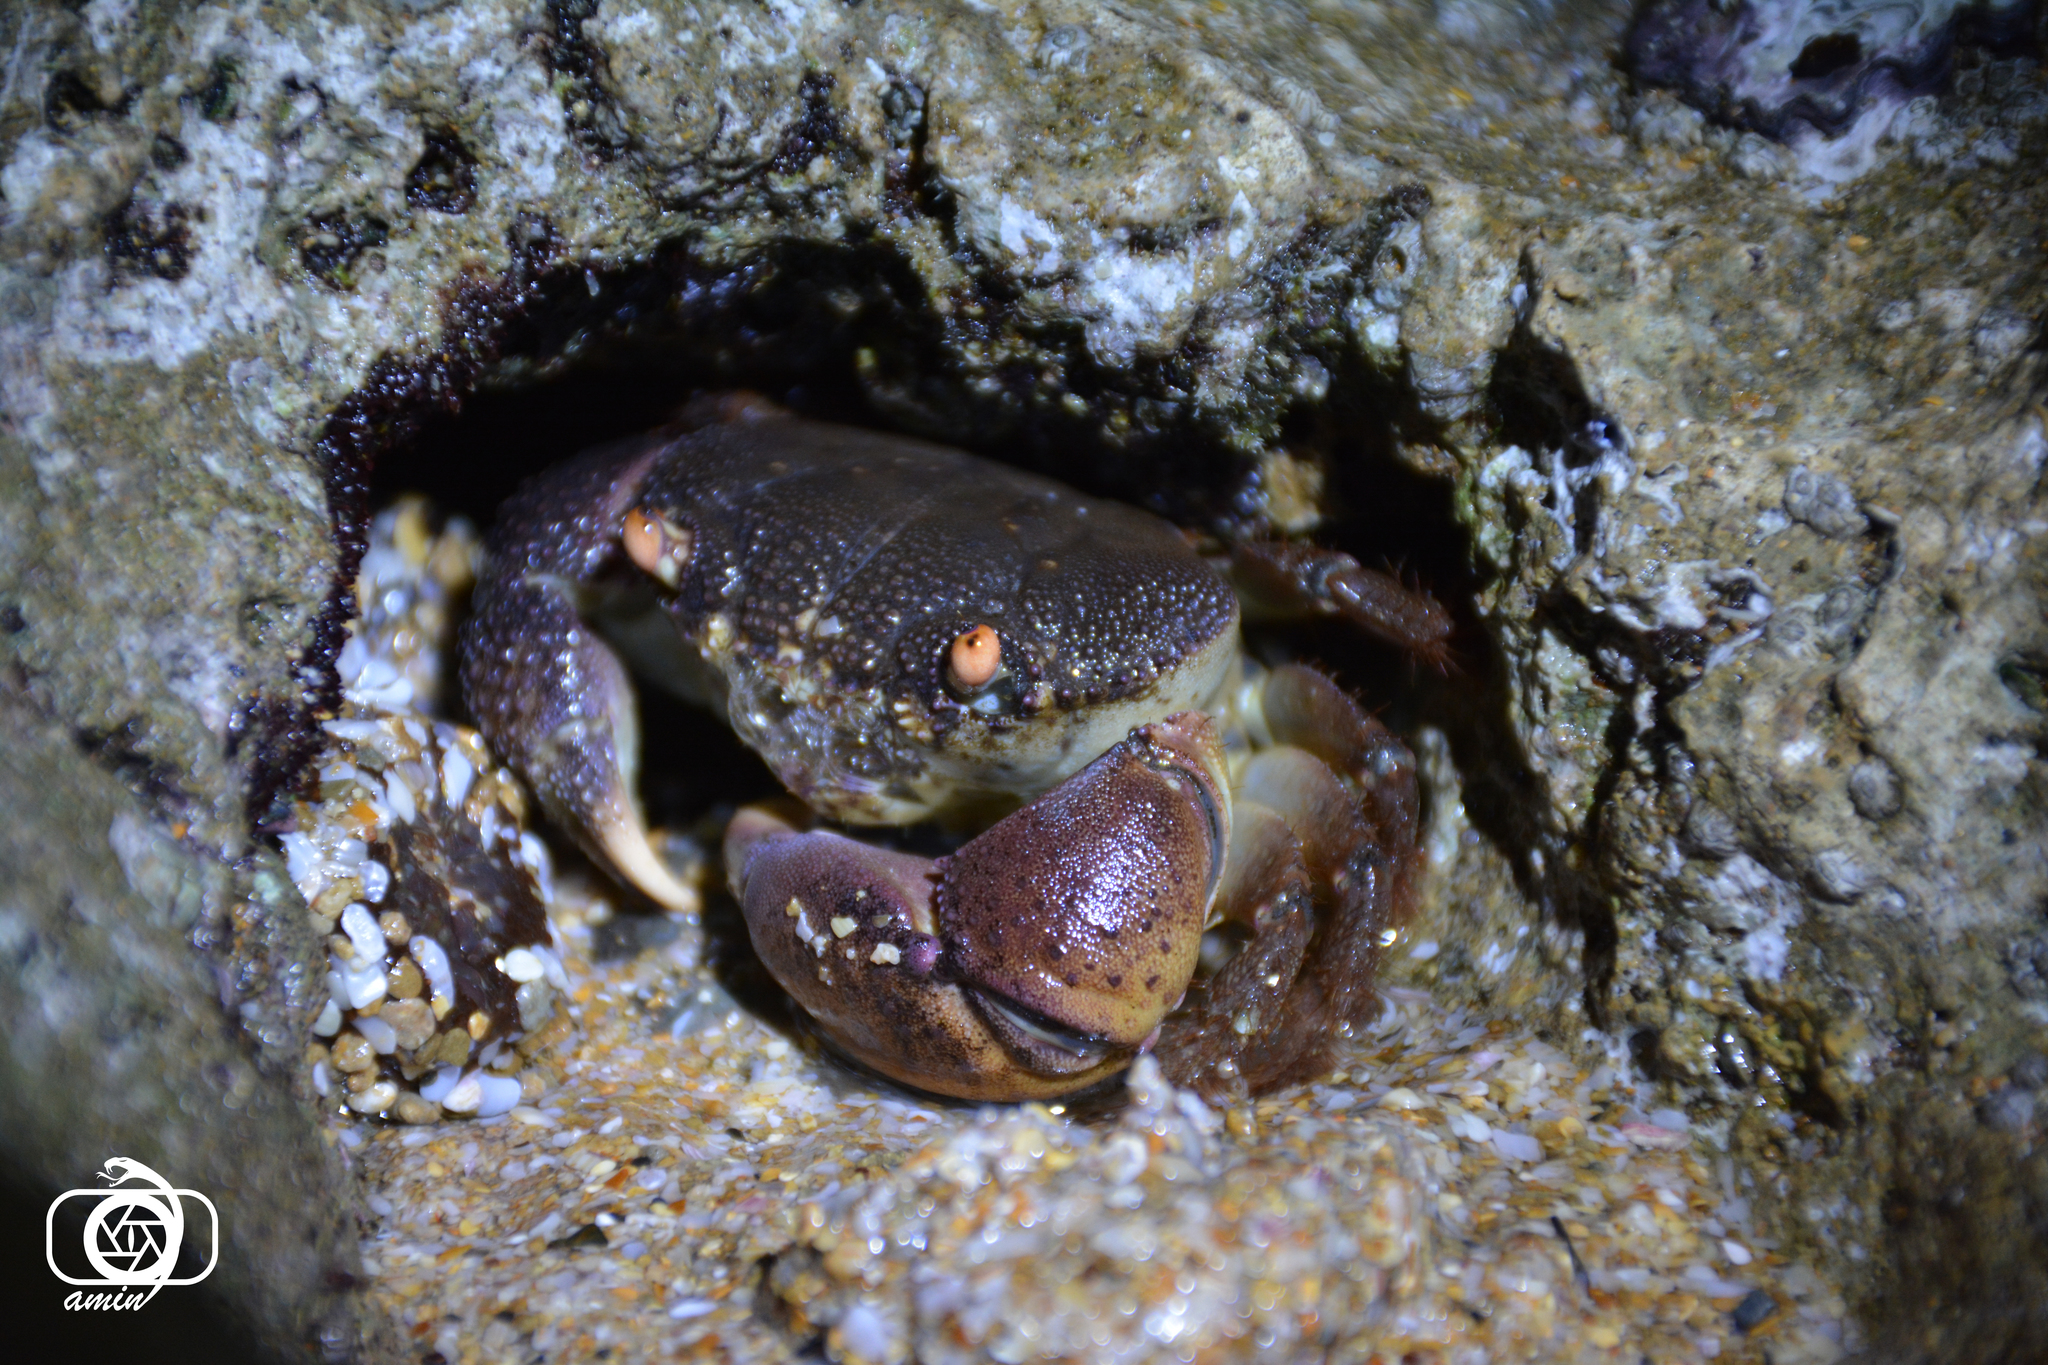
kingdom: Animalia
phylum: Arthropoda
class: Malacostraca
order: Decapoda
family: Eriphiidae
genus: Eriphia
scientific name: Eriphia smithii
